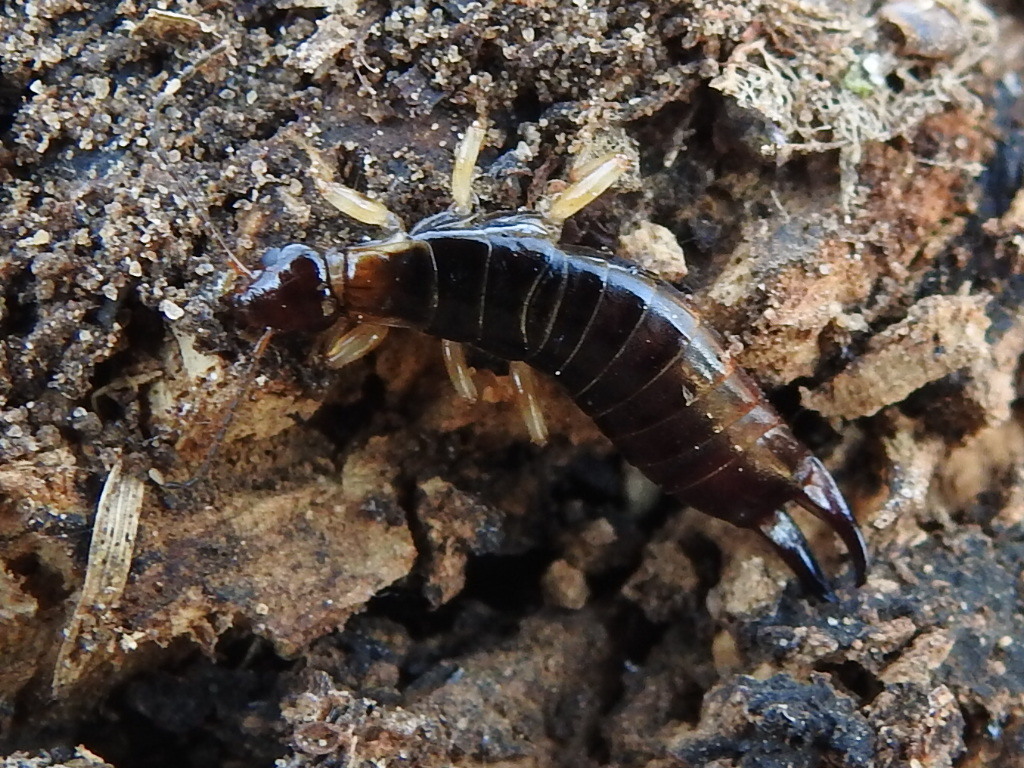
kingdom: Animalia
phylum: Arthropoda
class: Insecta
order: Dermaptera
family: Anisolabididae
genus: Euborellia
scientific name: Euborellia annulipes
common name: Ringlegged earwig
